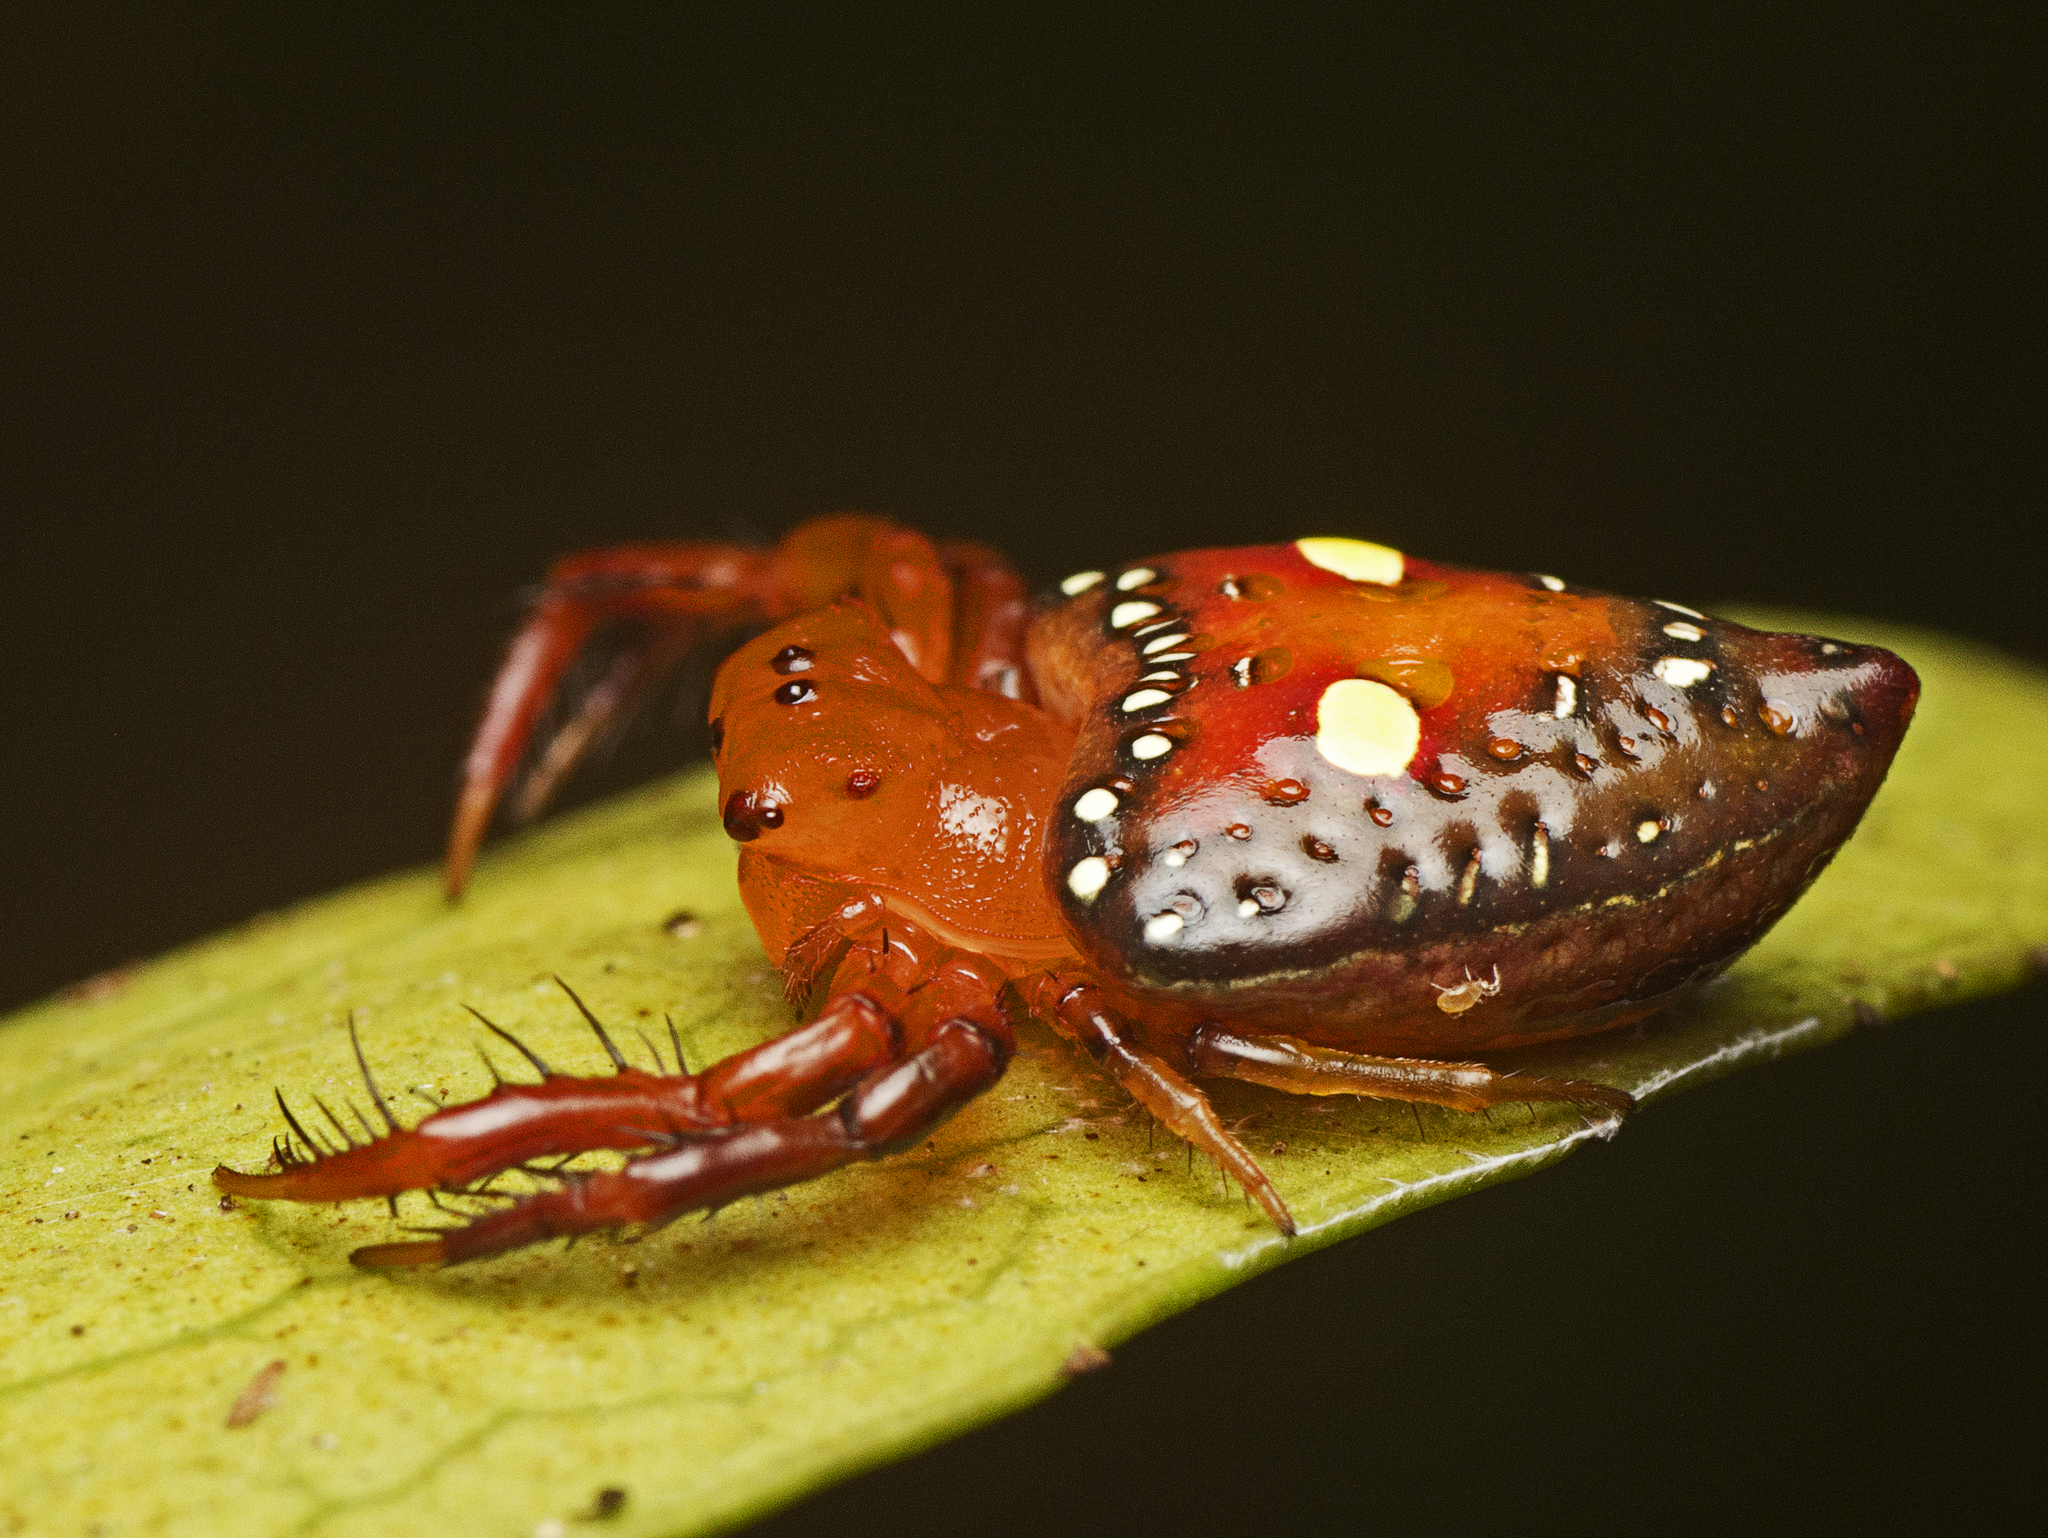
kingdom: Animalia
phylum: Arthropoda
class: Arachnida
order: Araneae
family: Arkyidae
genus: Arkys
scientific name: Arkys lancearius
